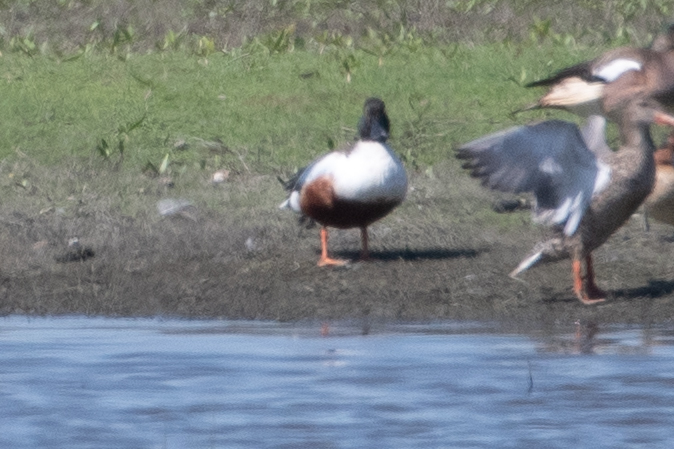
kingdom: Animalia
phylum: Chordata
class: Aves
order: Anseriformes
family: Anatidae
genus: Spatula
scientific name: Spatula clypeata
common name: Northern shoveler
